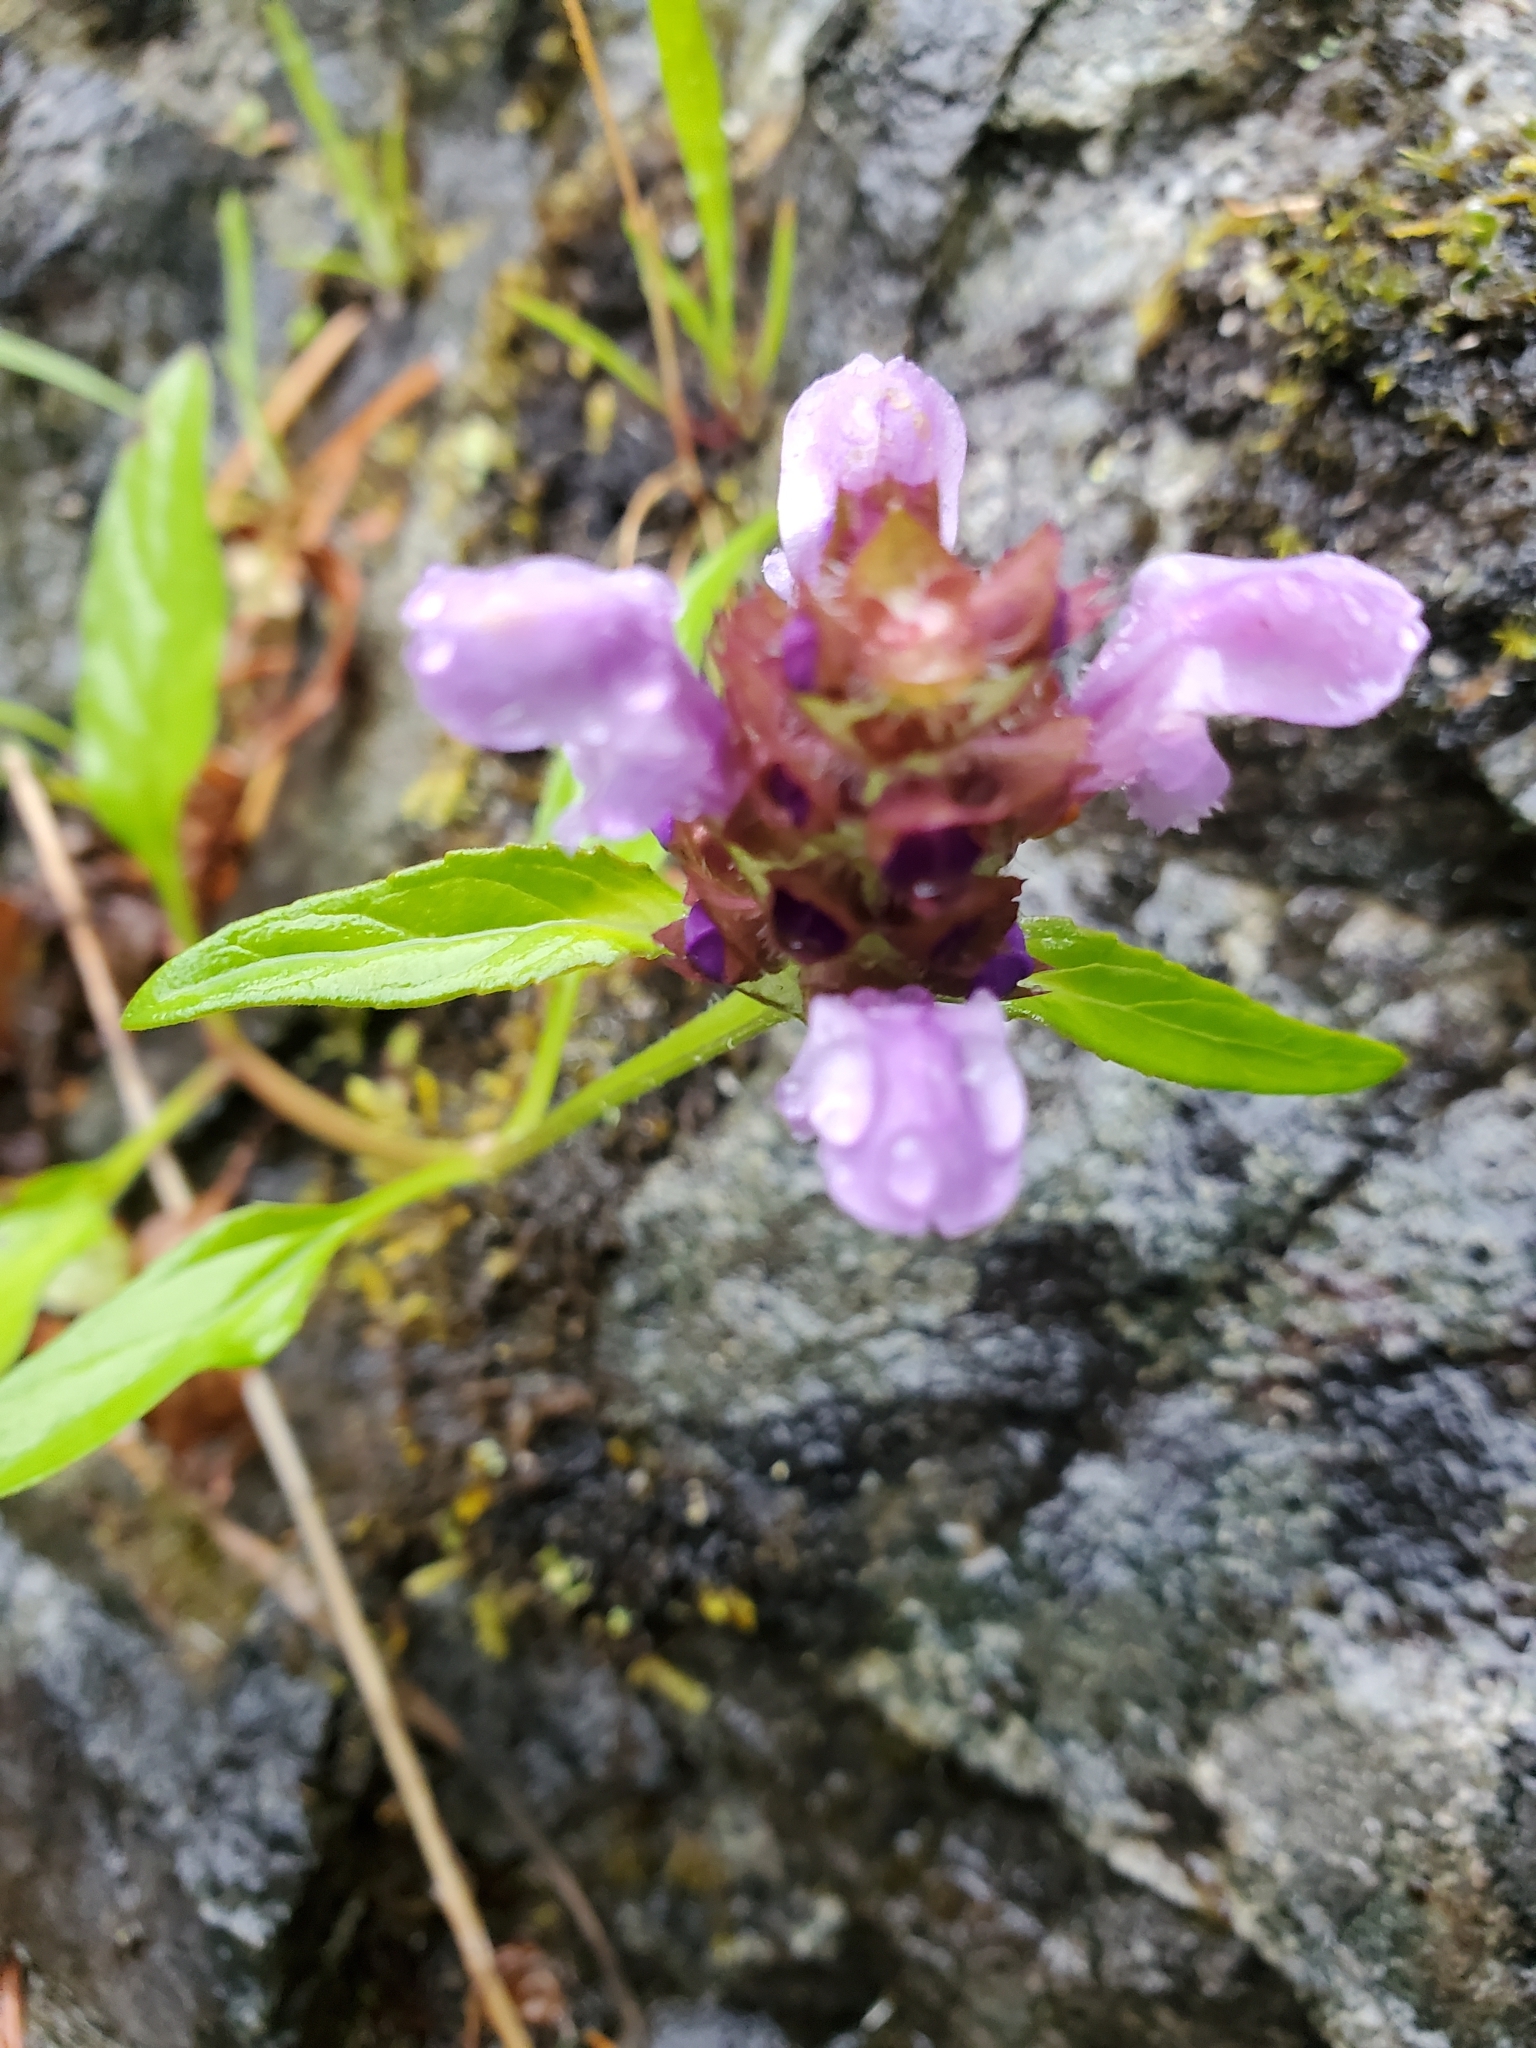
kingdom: Plantae
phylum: Tracheophyta
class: Magnoliopsida
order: Lamiales
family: Lamiaceae
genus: Prunella
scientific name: Prunella vulgaris
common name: Heal-all
